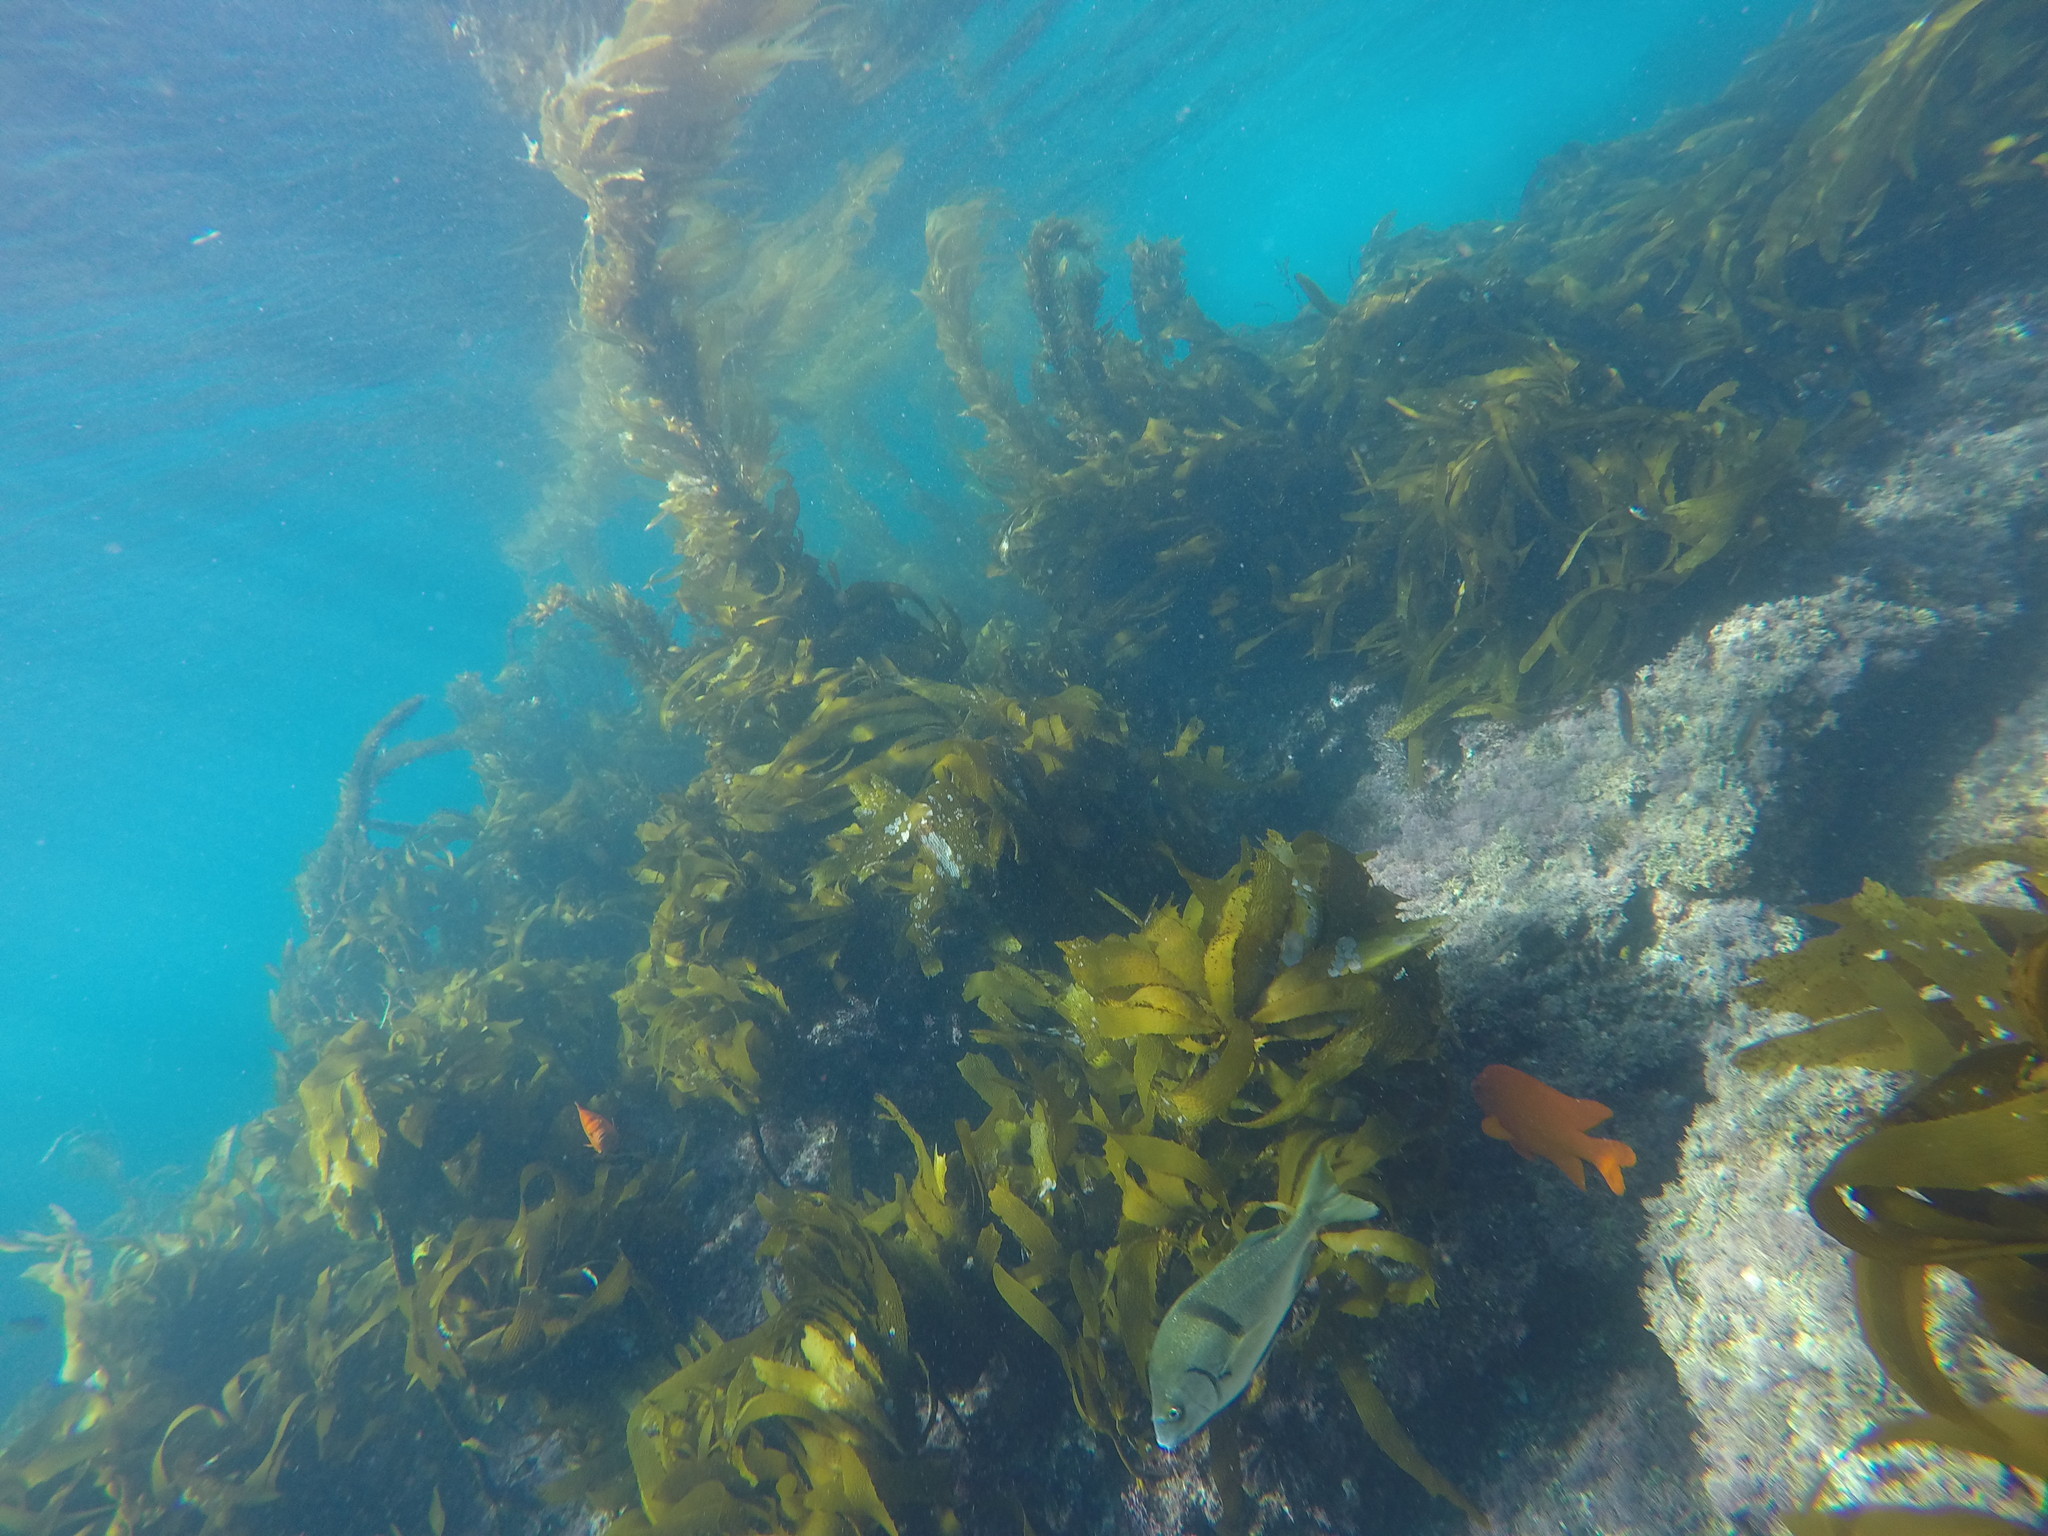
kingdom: Animalia
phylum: Chordata
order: Perciformes
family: Haemulidae
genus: Anisotremus
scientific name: Anisotremus davidsonii
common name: Grunt
